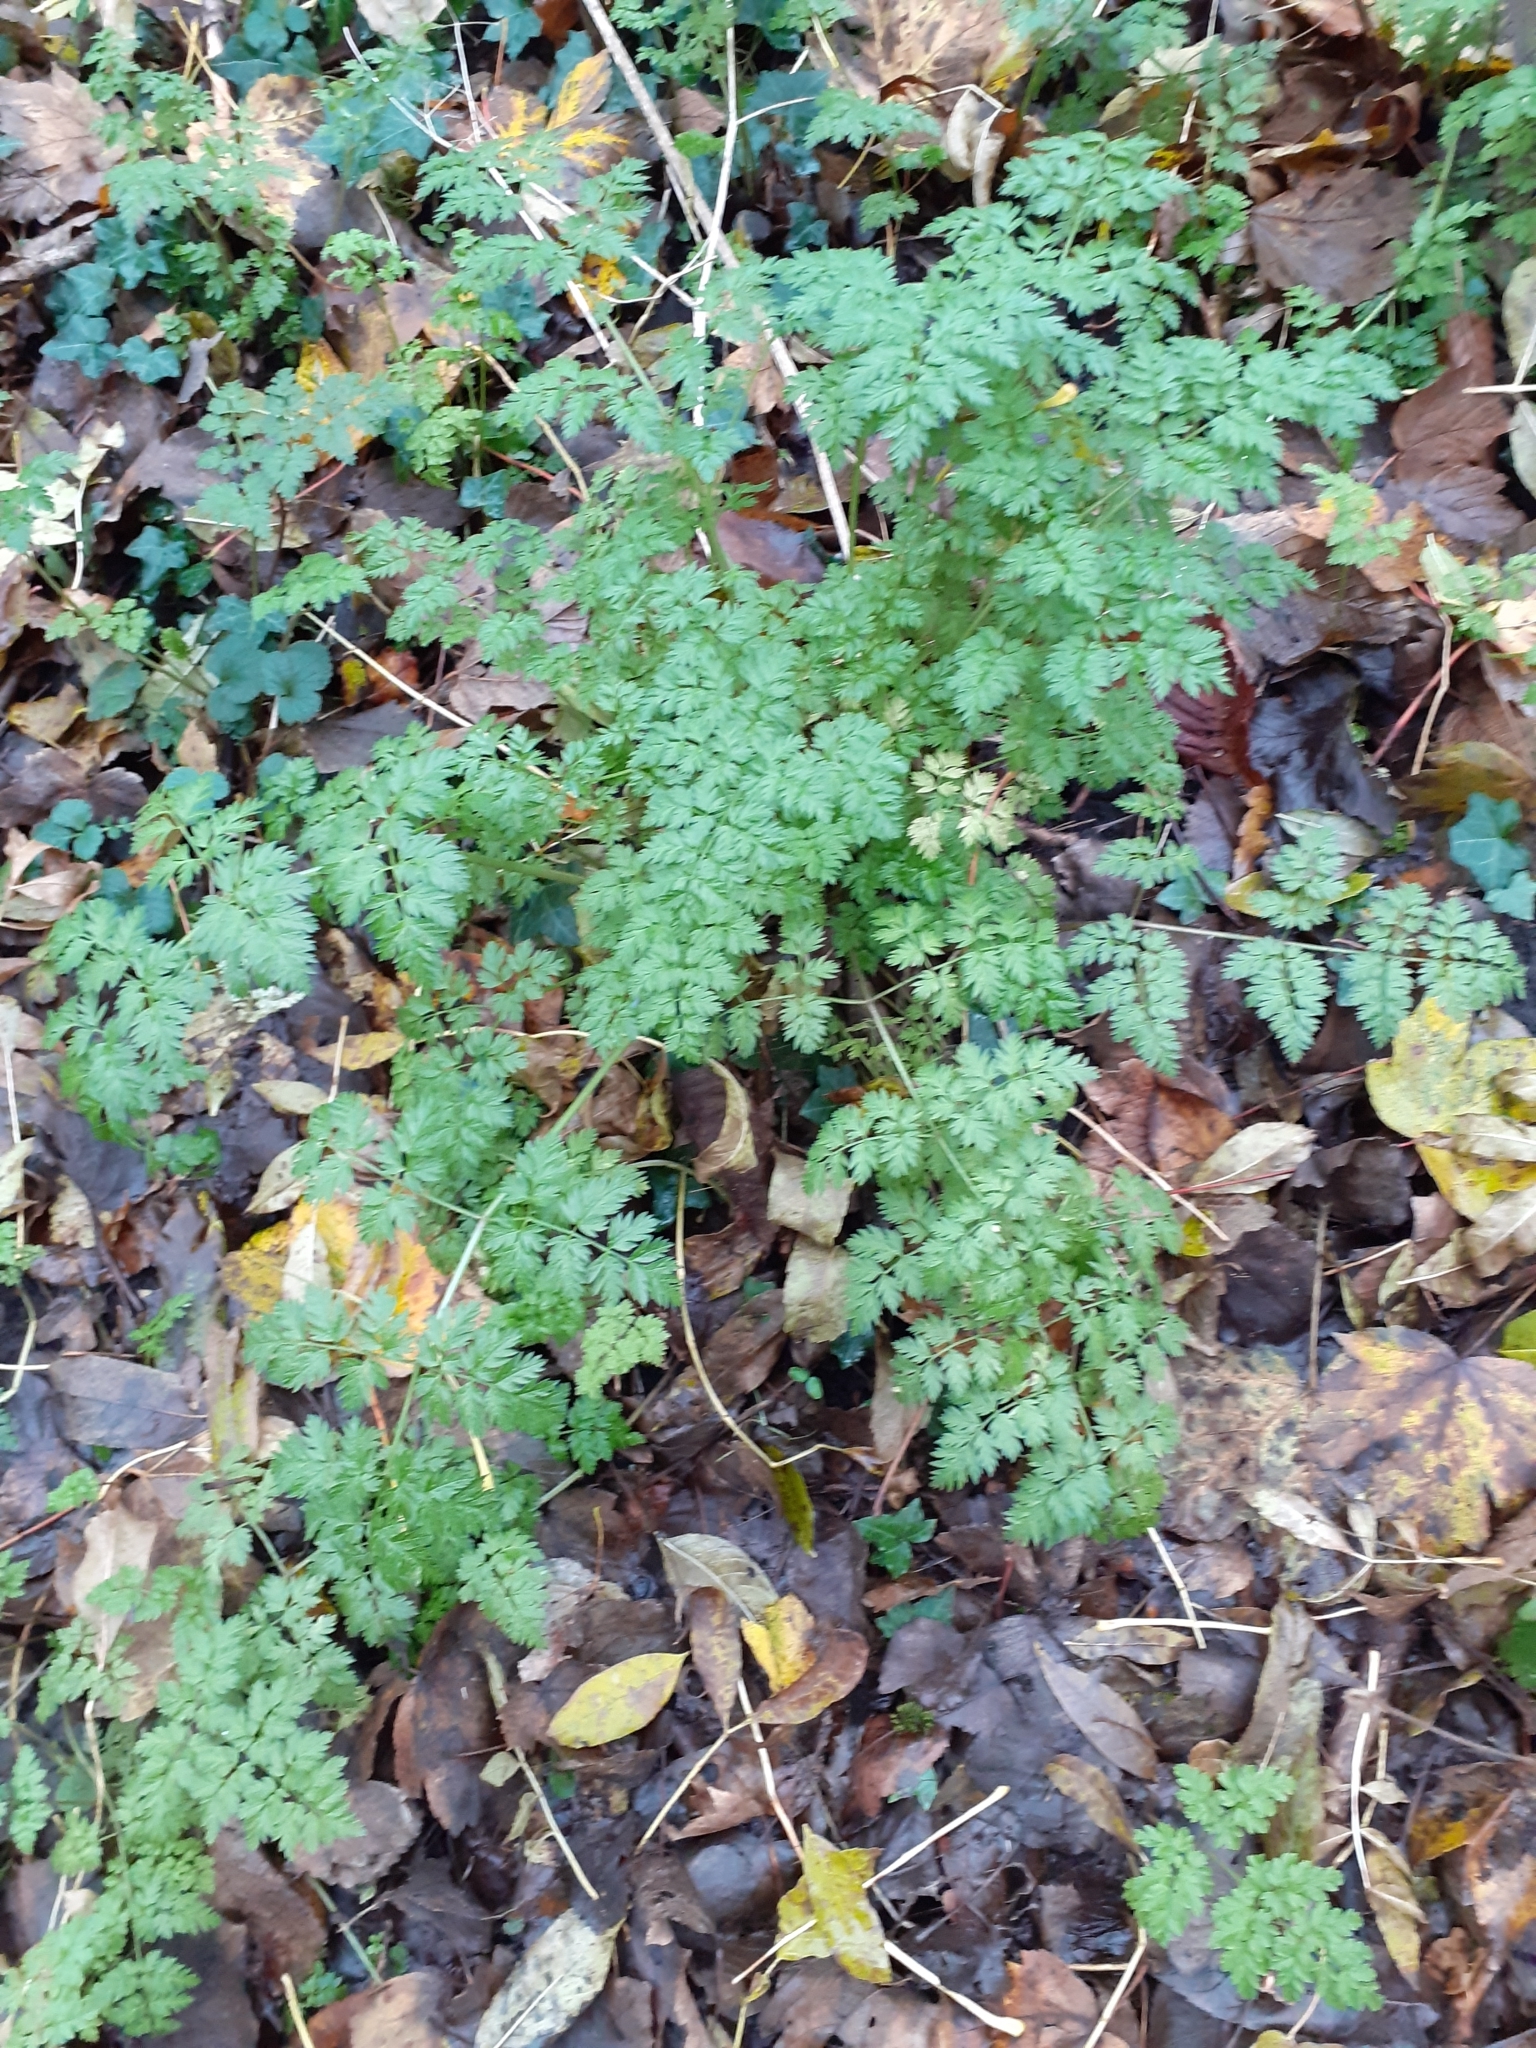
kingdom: Plantae
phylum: Tracheophyta
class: Magnoliopsida
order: Apiales
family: Apiaceae
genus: Anthriscus
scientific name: Anthriscus sylvestris
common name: Cow parsley
